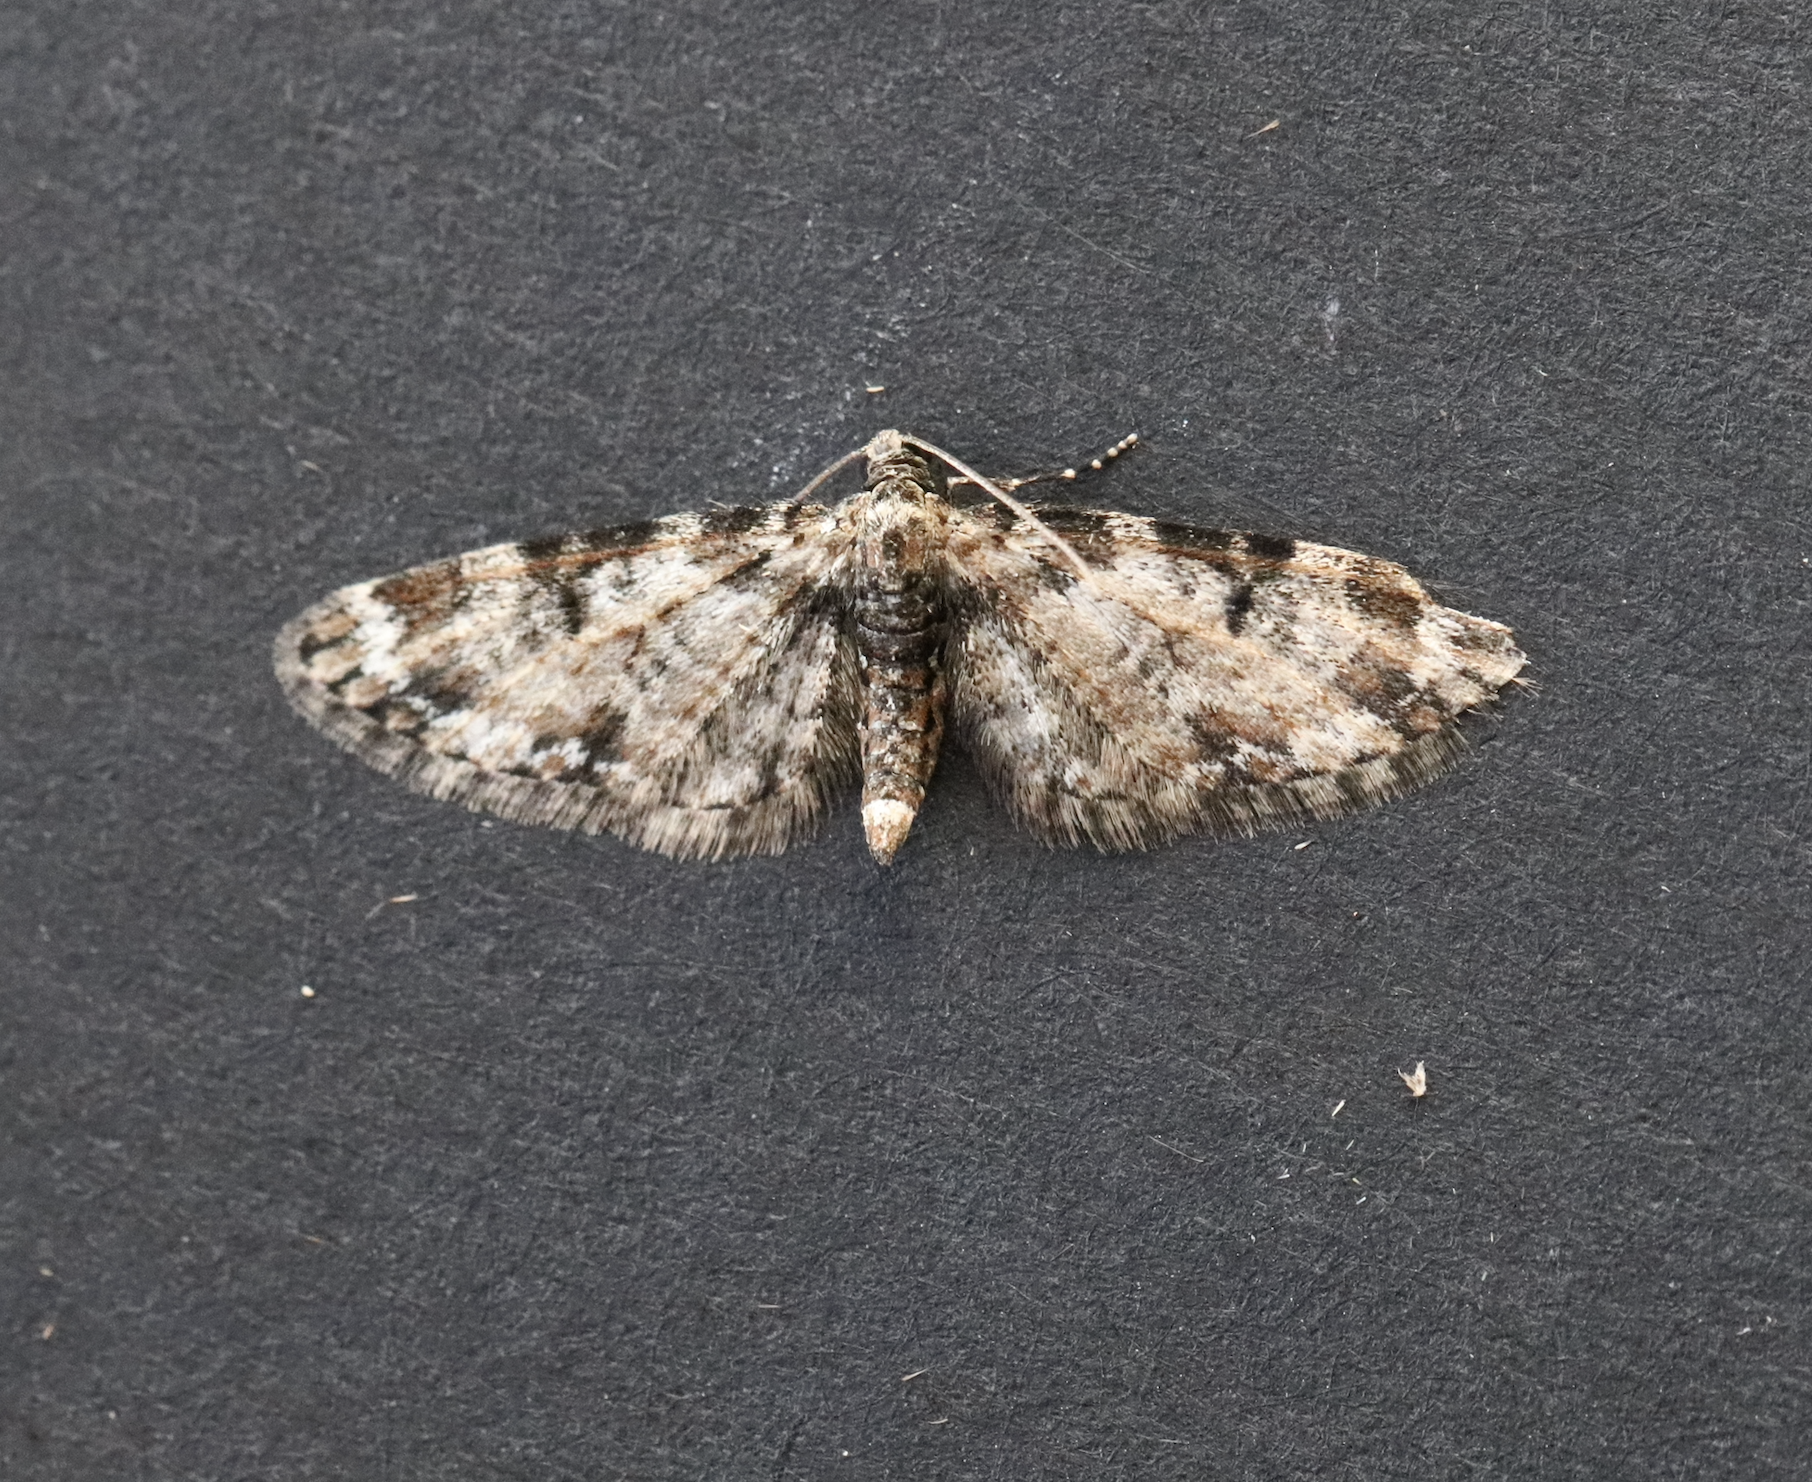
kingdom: Animalia
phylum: Arthropoda
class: Insecta
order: Lepidoptera
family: Geometridae
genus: Eupithecia
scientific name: Eupithecia irriguata
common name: Marbled pug
